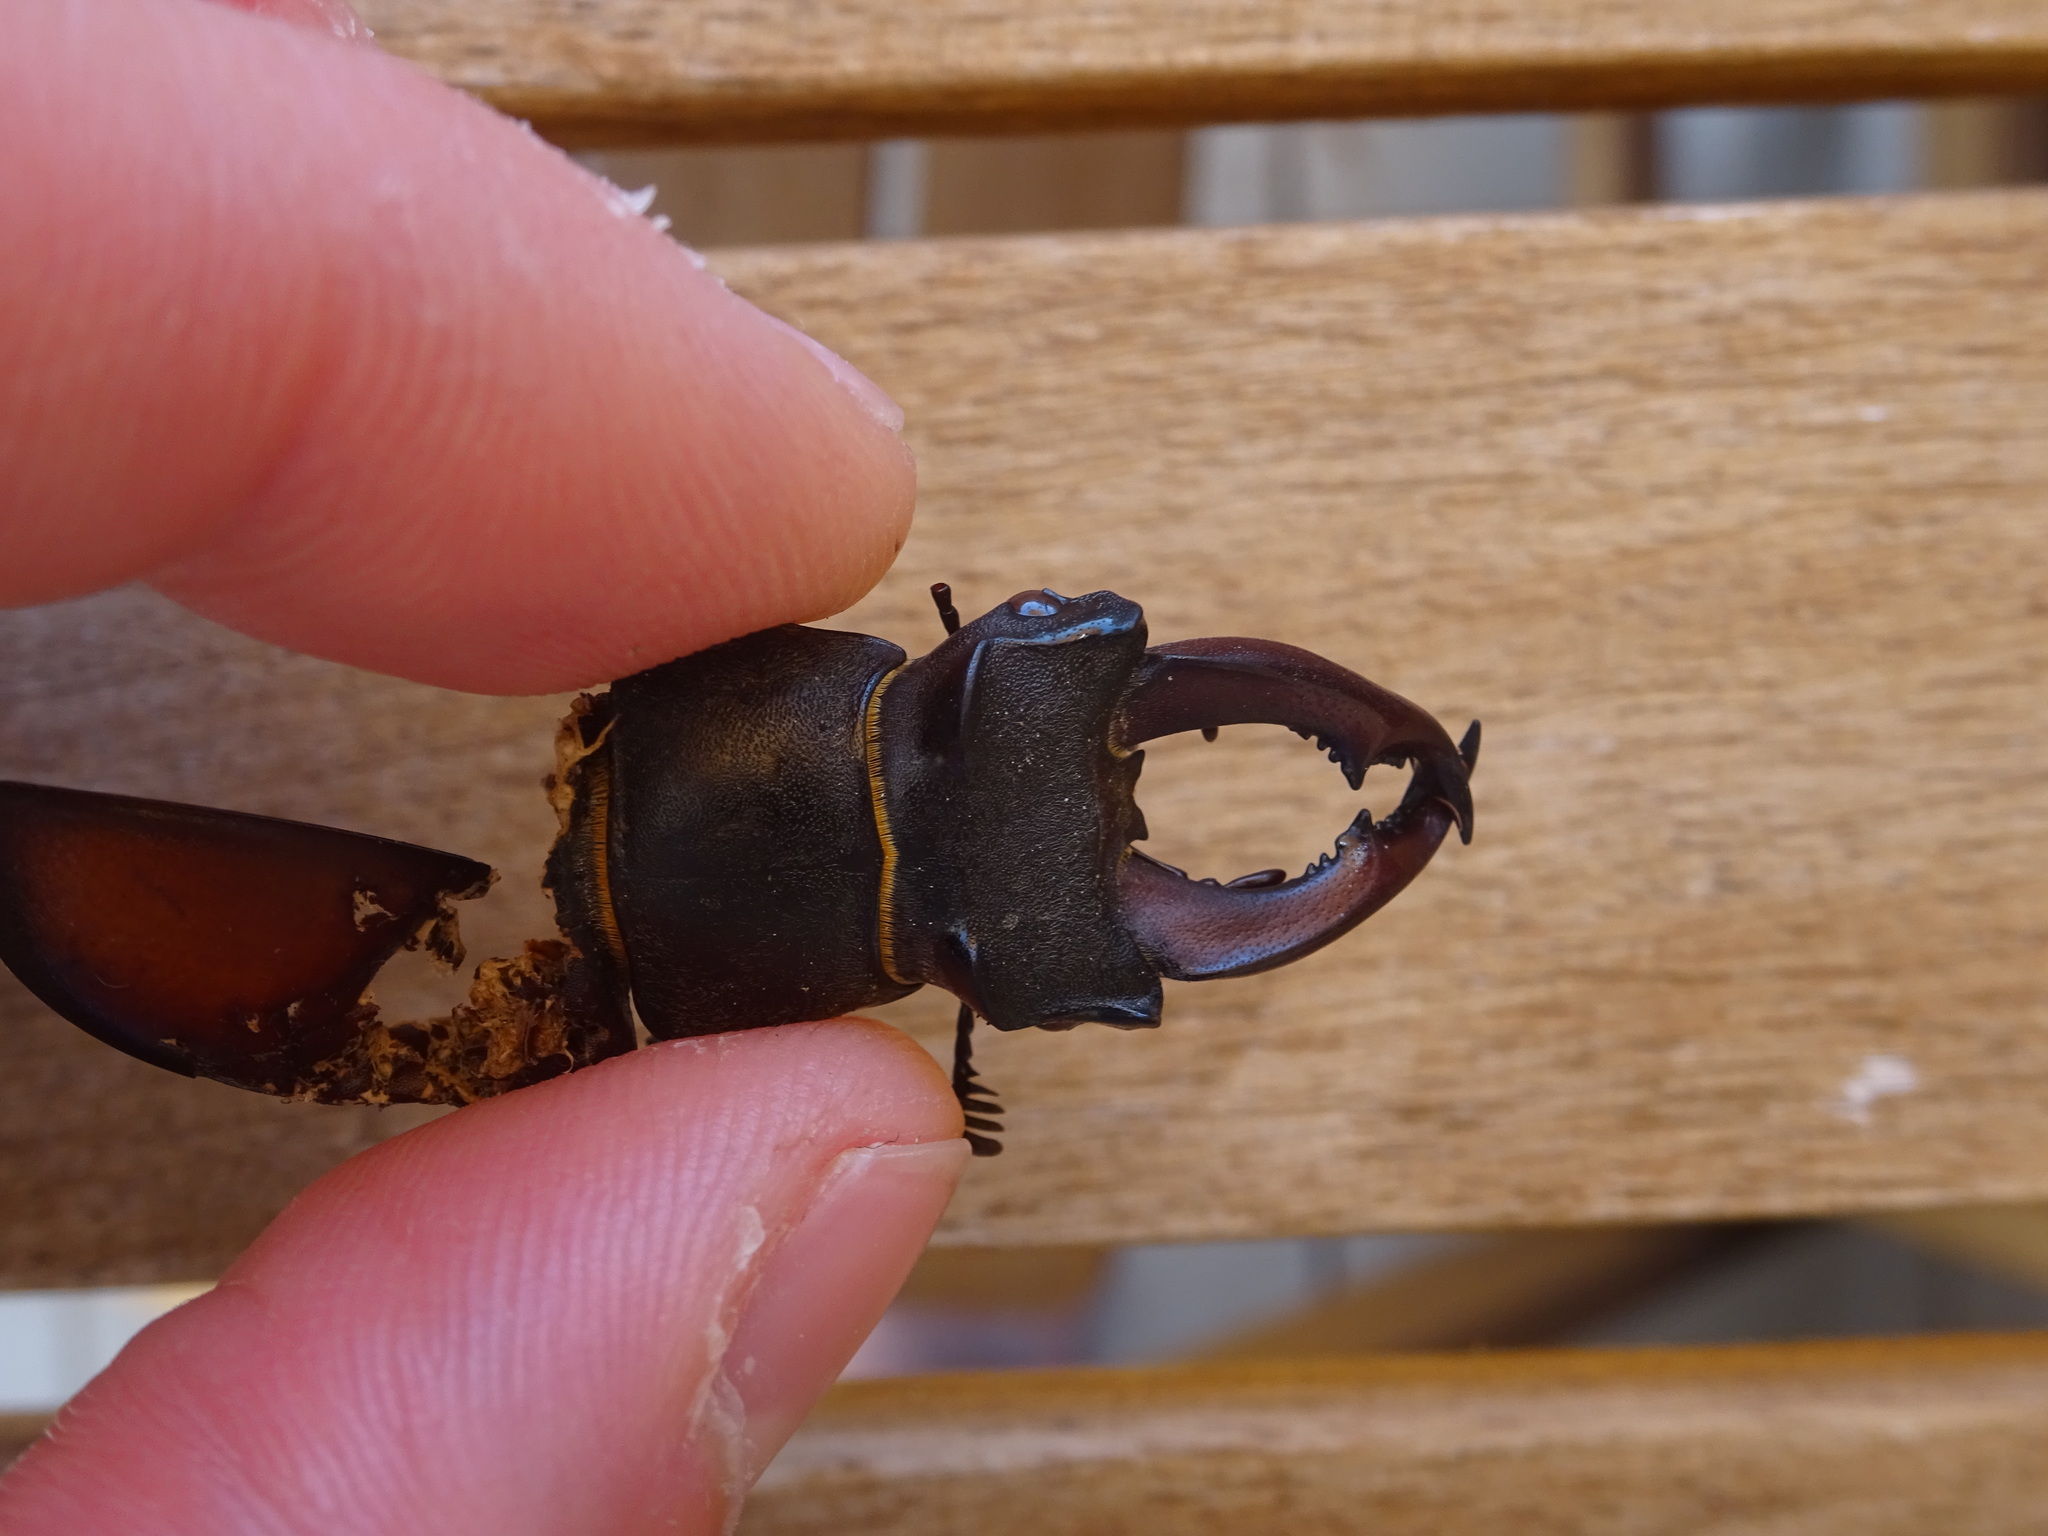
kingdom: Animalia
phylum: Arthropoda
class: Insecta
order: Coleoptera
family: Lucanidae
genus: Lucanus
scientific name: Lucanus cervus
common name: Stag beetle
